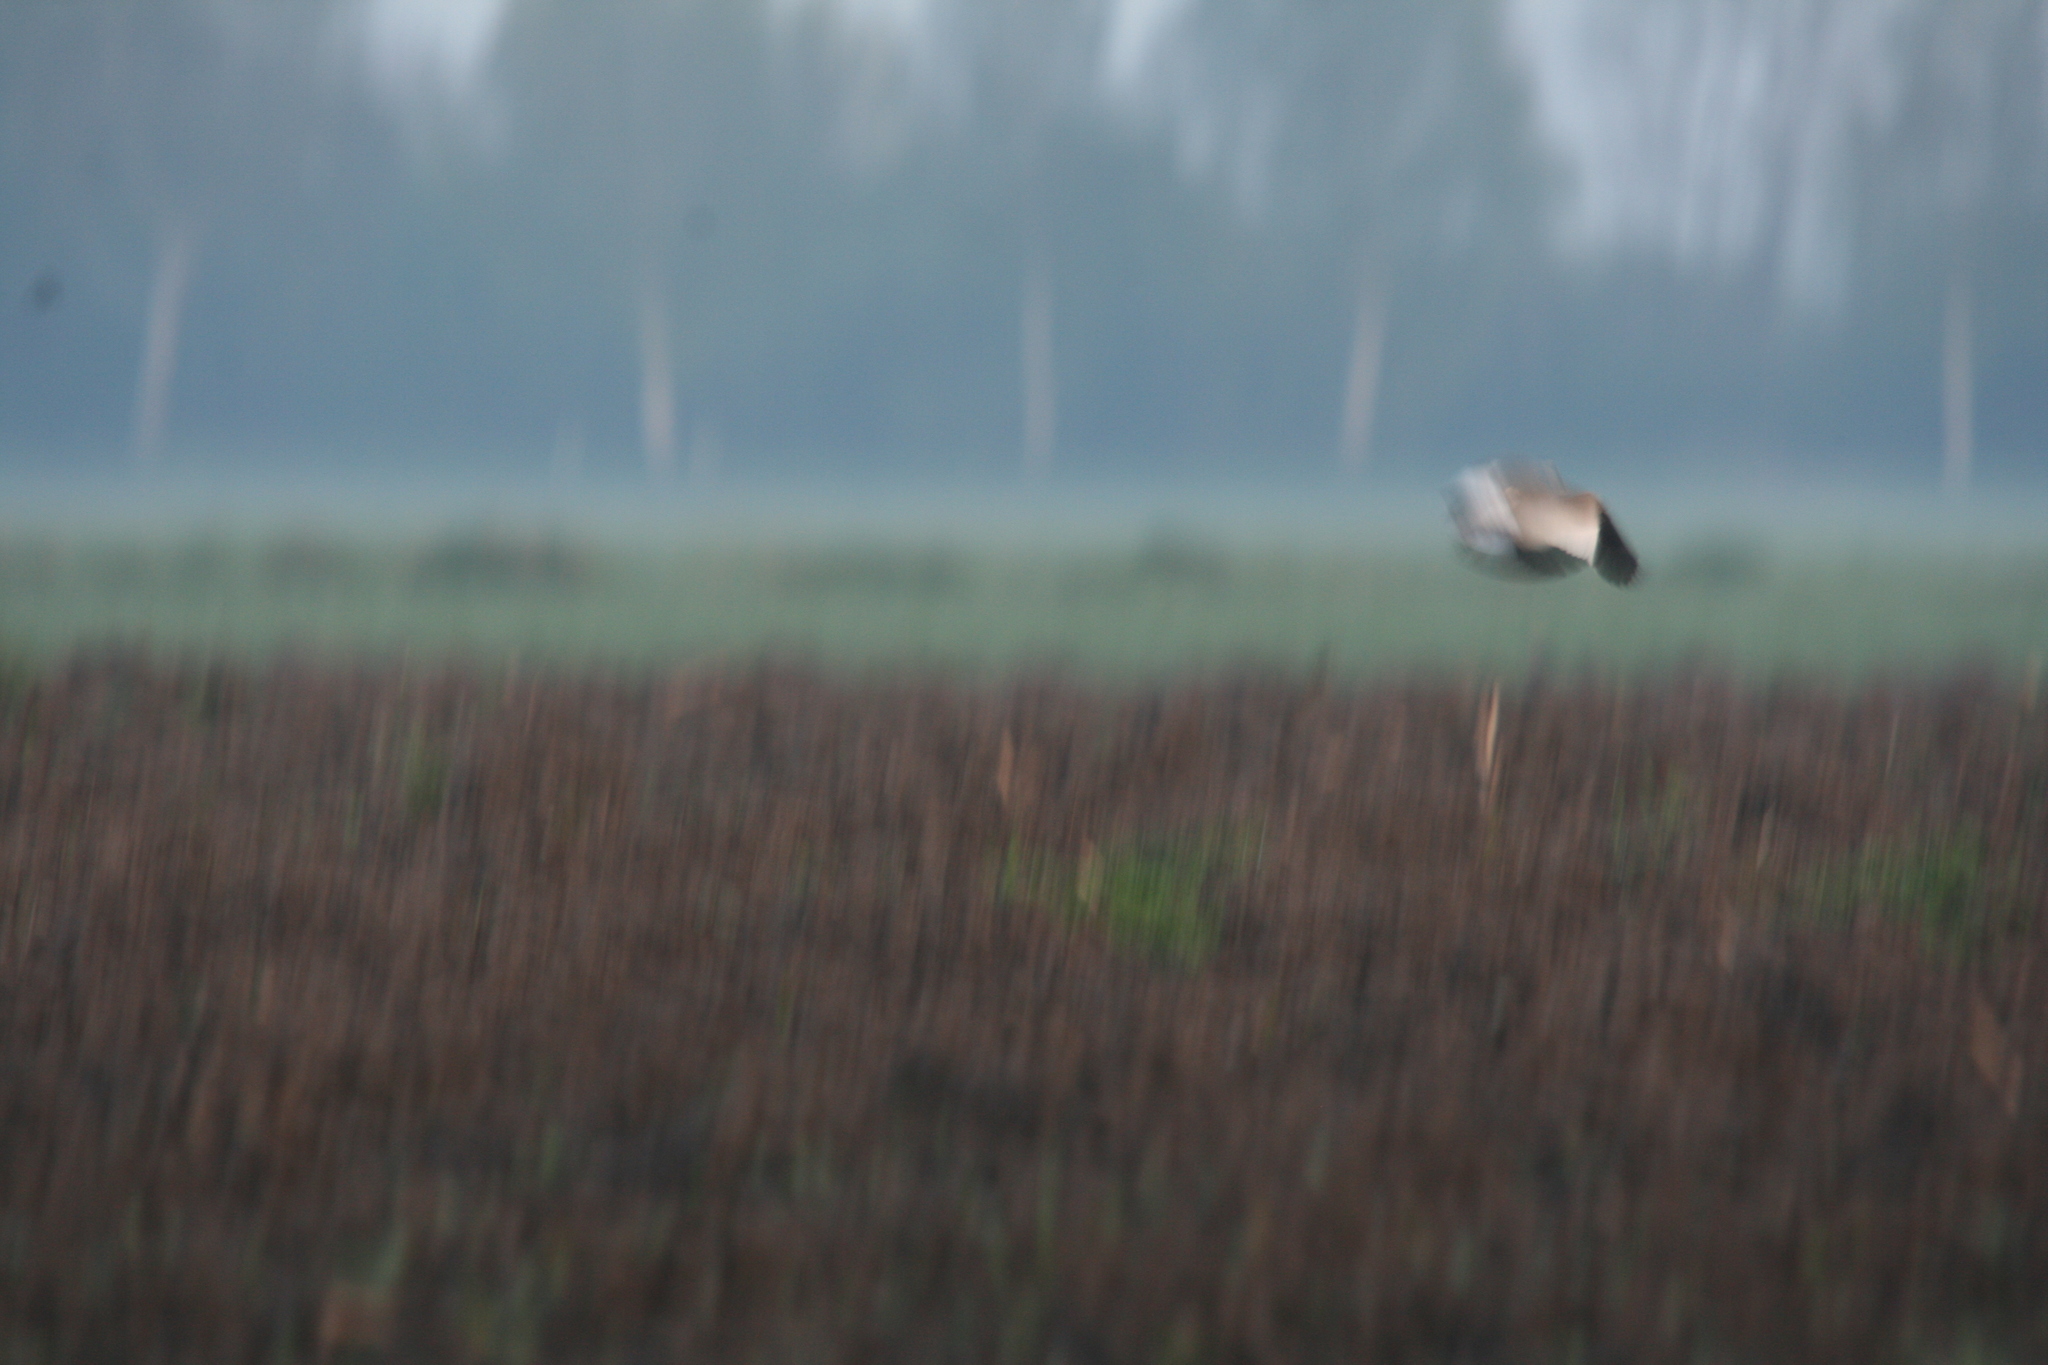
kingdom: Animalia
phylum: Chordata
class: Aves
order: Charadriiformes
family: Charadriidae
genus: Vanellus
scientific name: Vanellus gregarius
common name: Sociable lapwing
